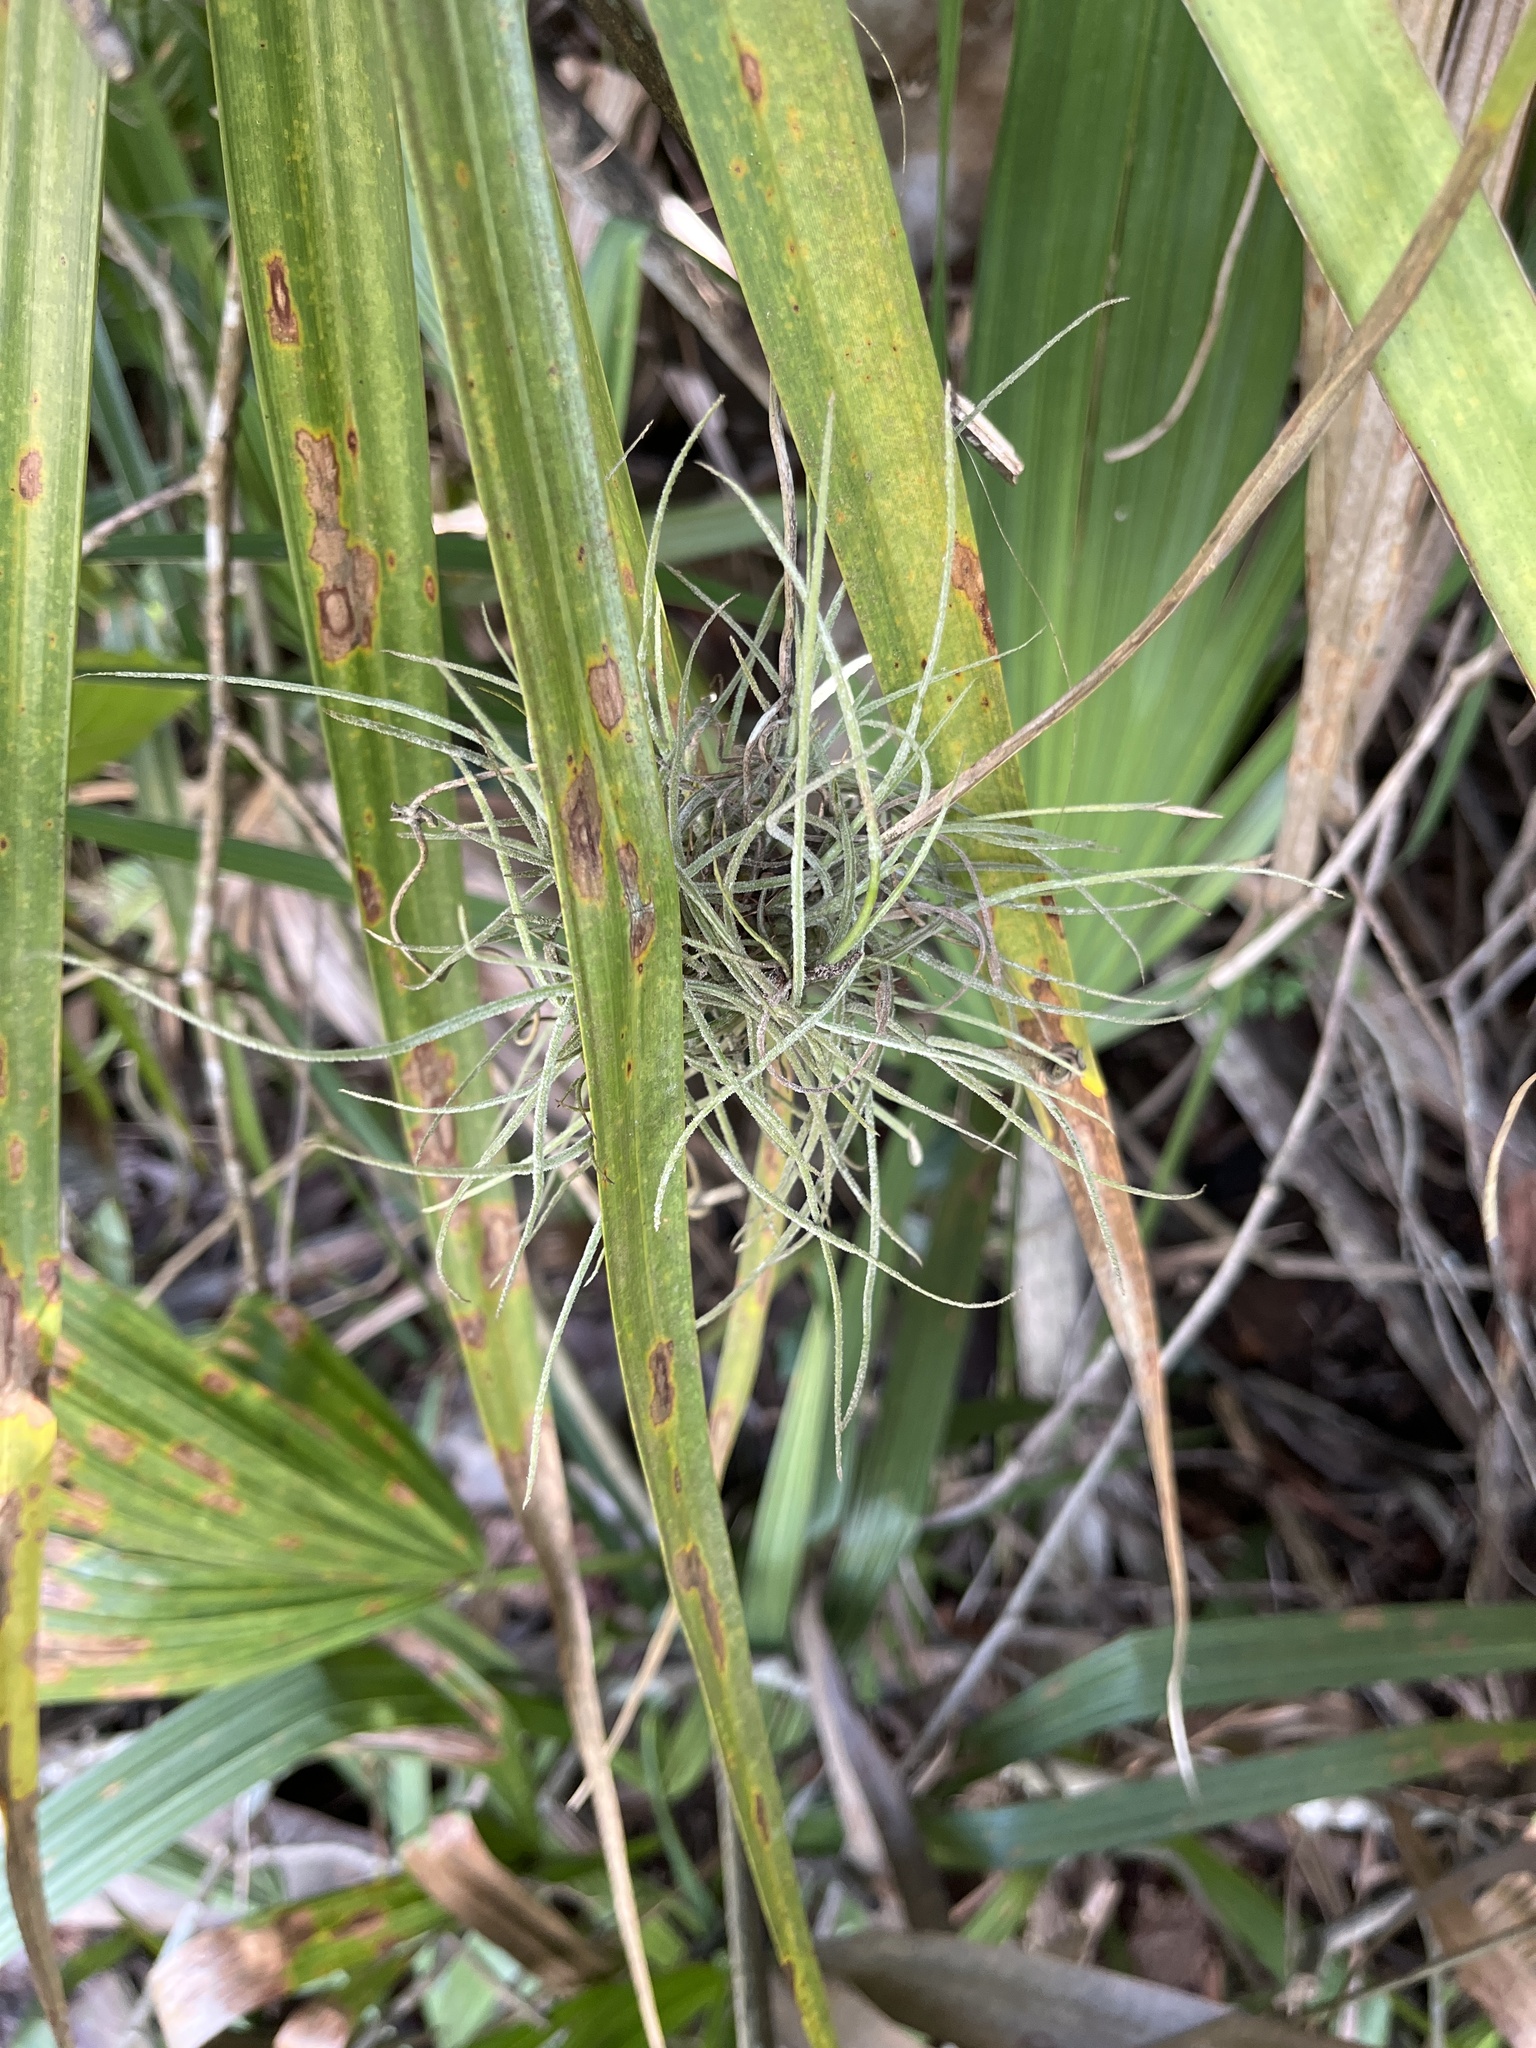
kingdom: Plantae
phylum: Tracheophyta
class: Liliopsida
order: Poales
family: Bromeliaceae
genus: Tillandsia
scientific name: Tillandsia recurvata
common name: Small ballmoss
